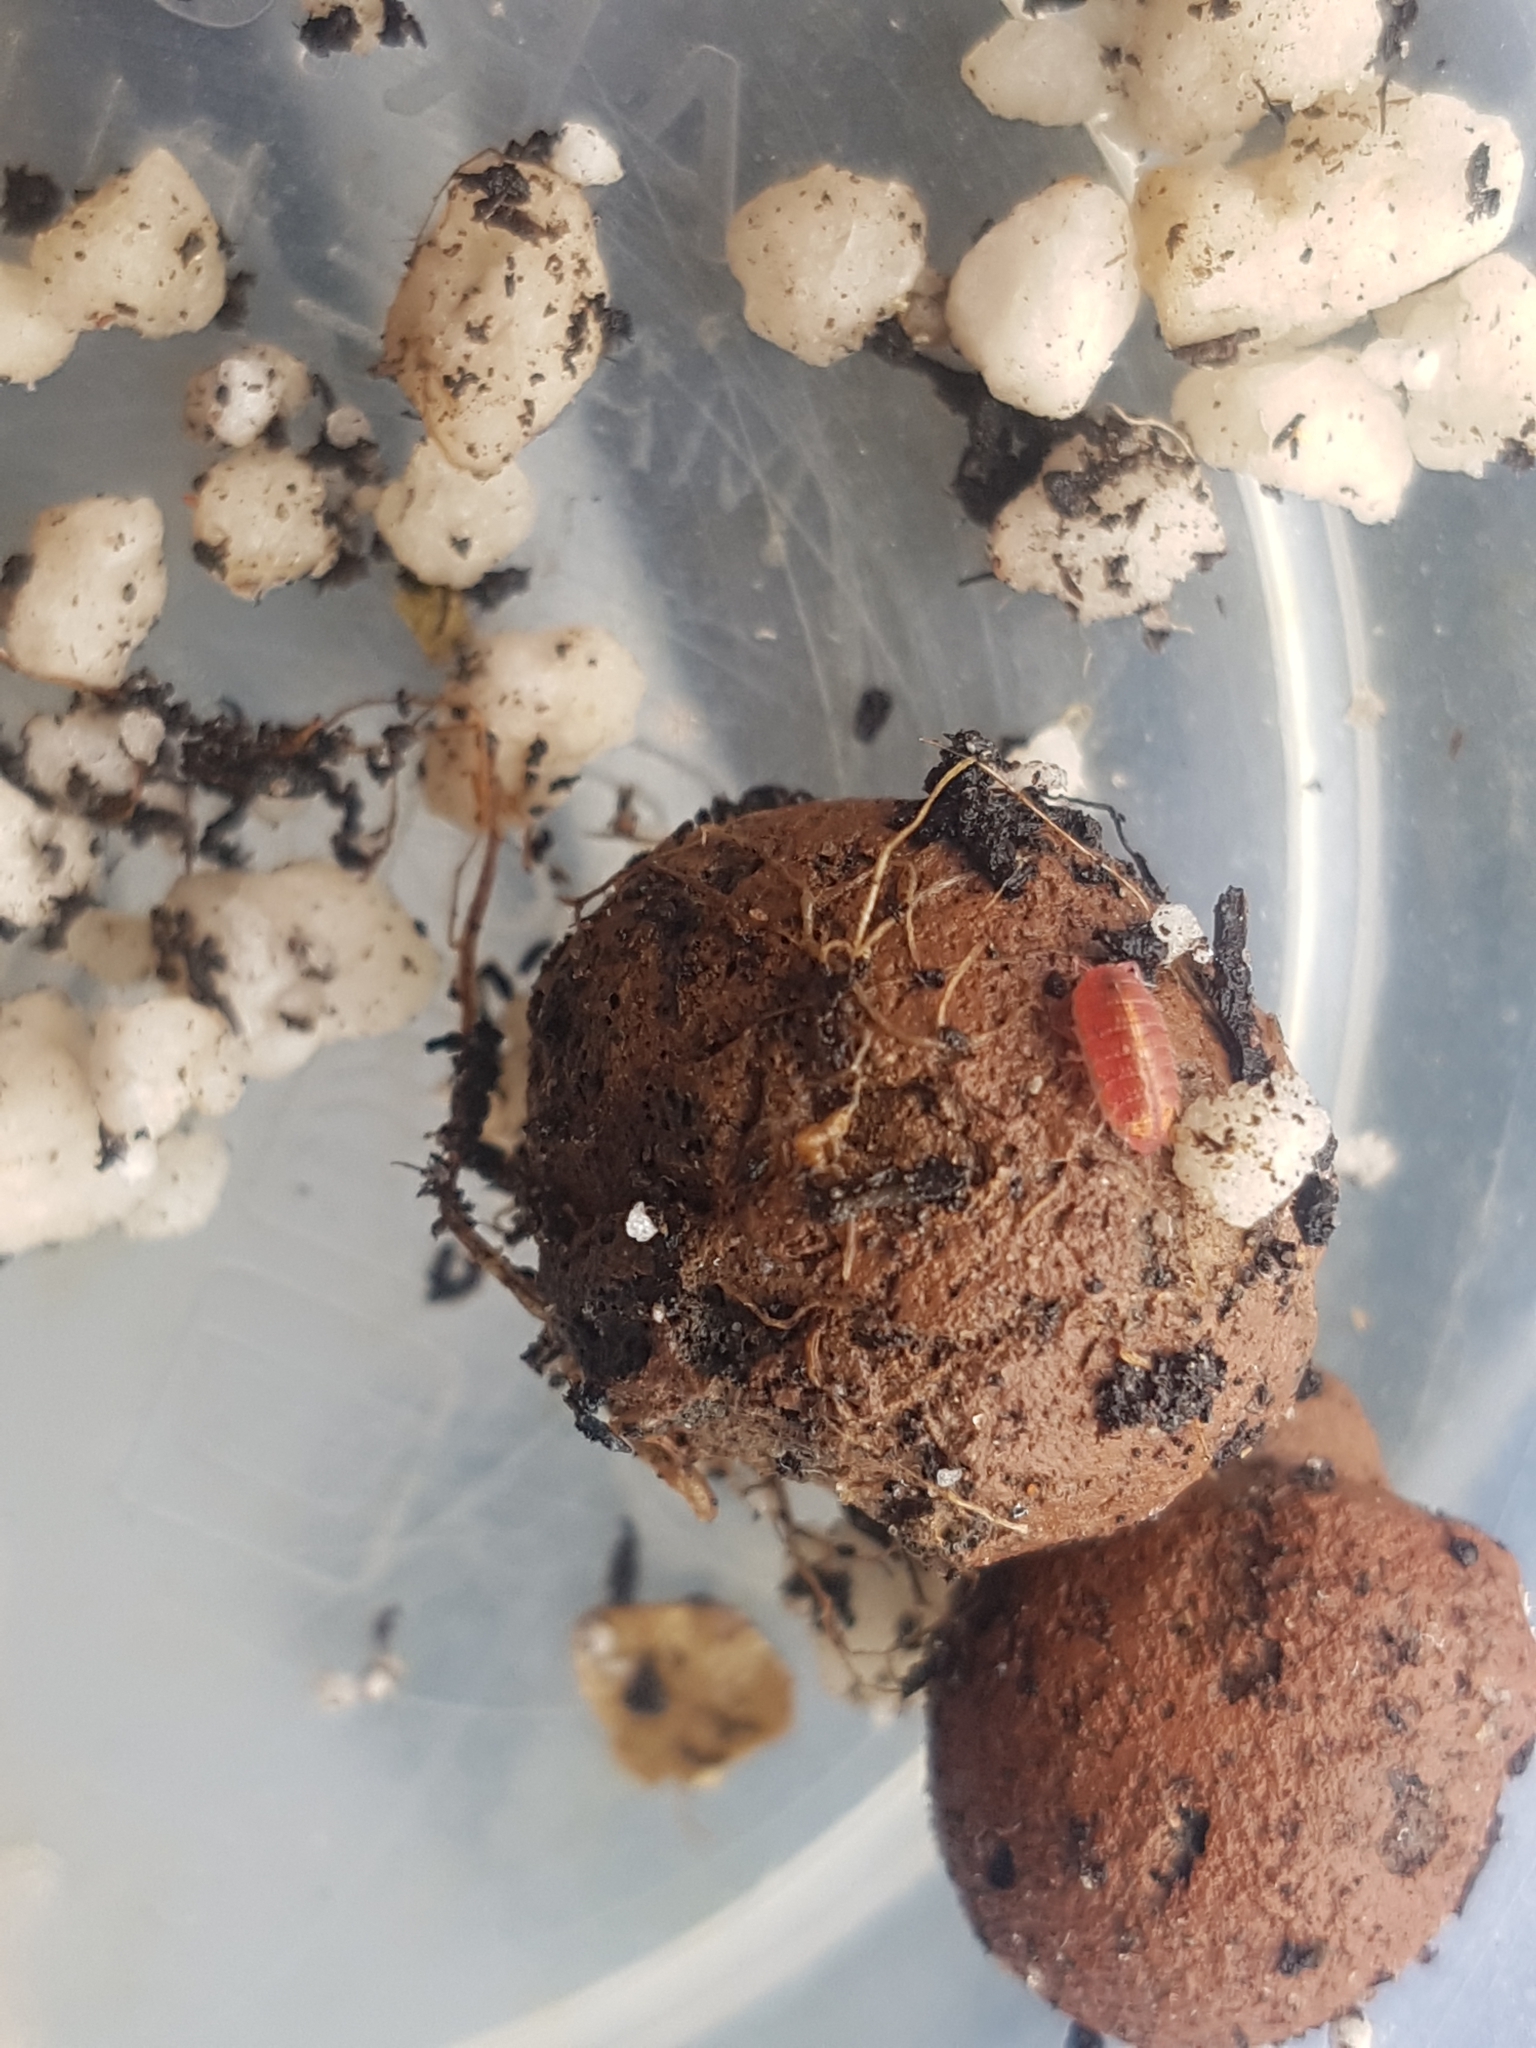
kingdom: Animalia
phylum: Arthropoda
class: Malacostraca
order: Isopoda
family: Trichoniscidae
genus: Androniscus
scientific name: Androniscus dentiger
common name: Rosy woodlouse
